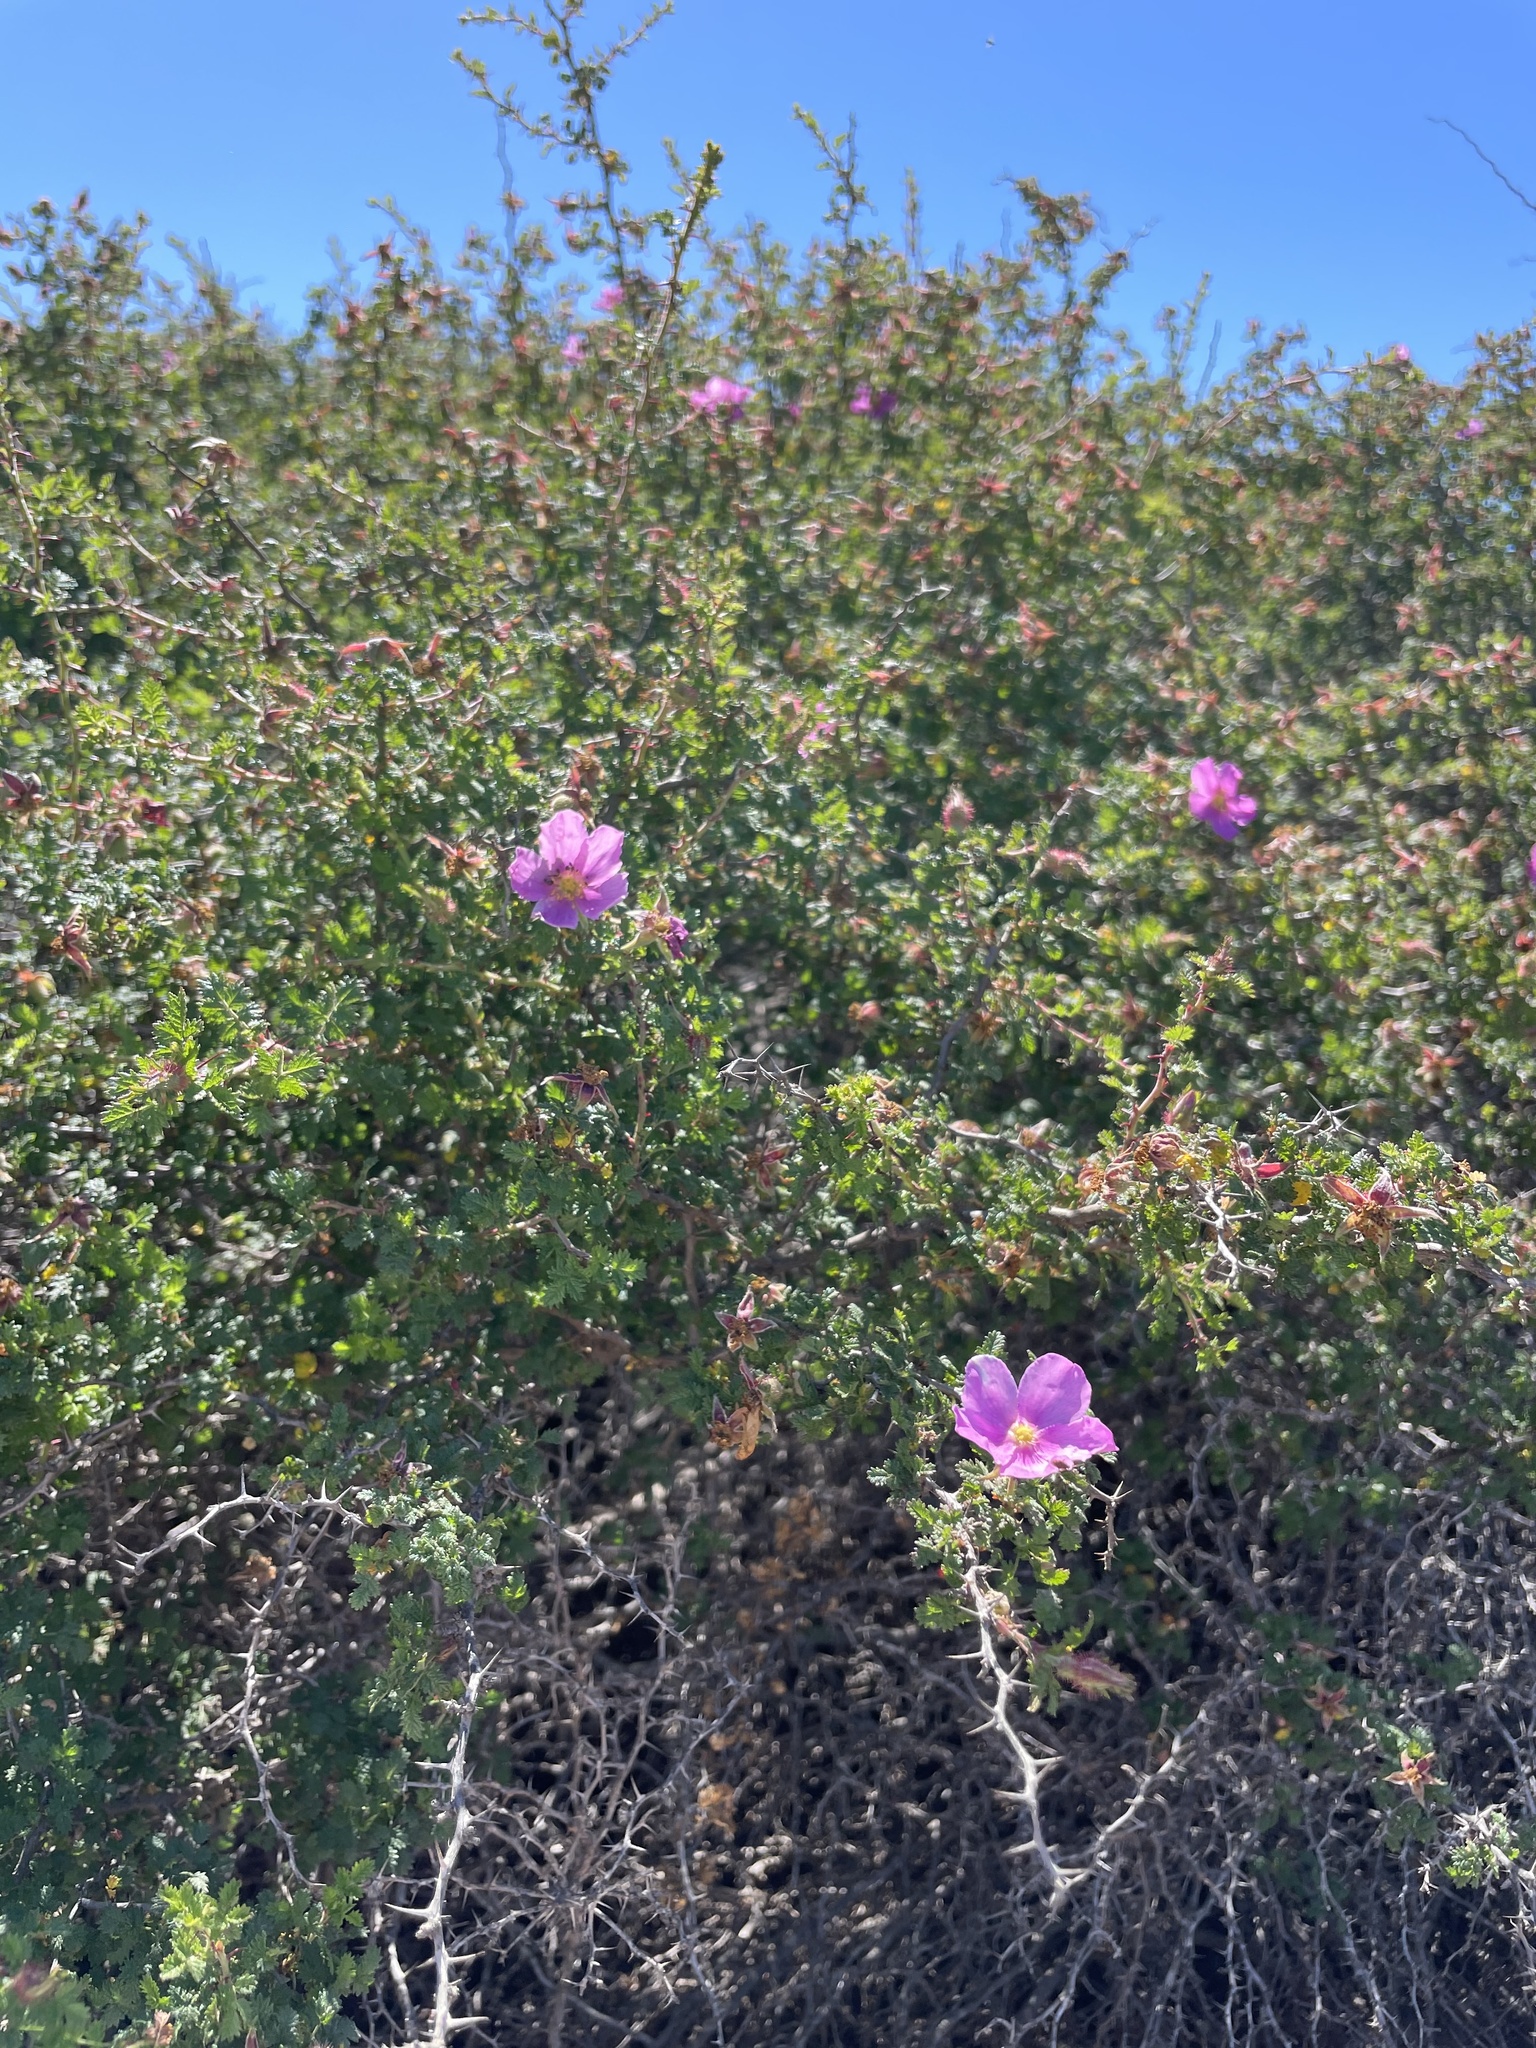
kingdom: Plantae
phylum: Tracheophyta
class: Magnoliopsida
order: Rosales
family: Rosaceae
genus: Rosa
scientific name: Rosa minutifolia
